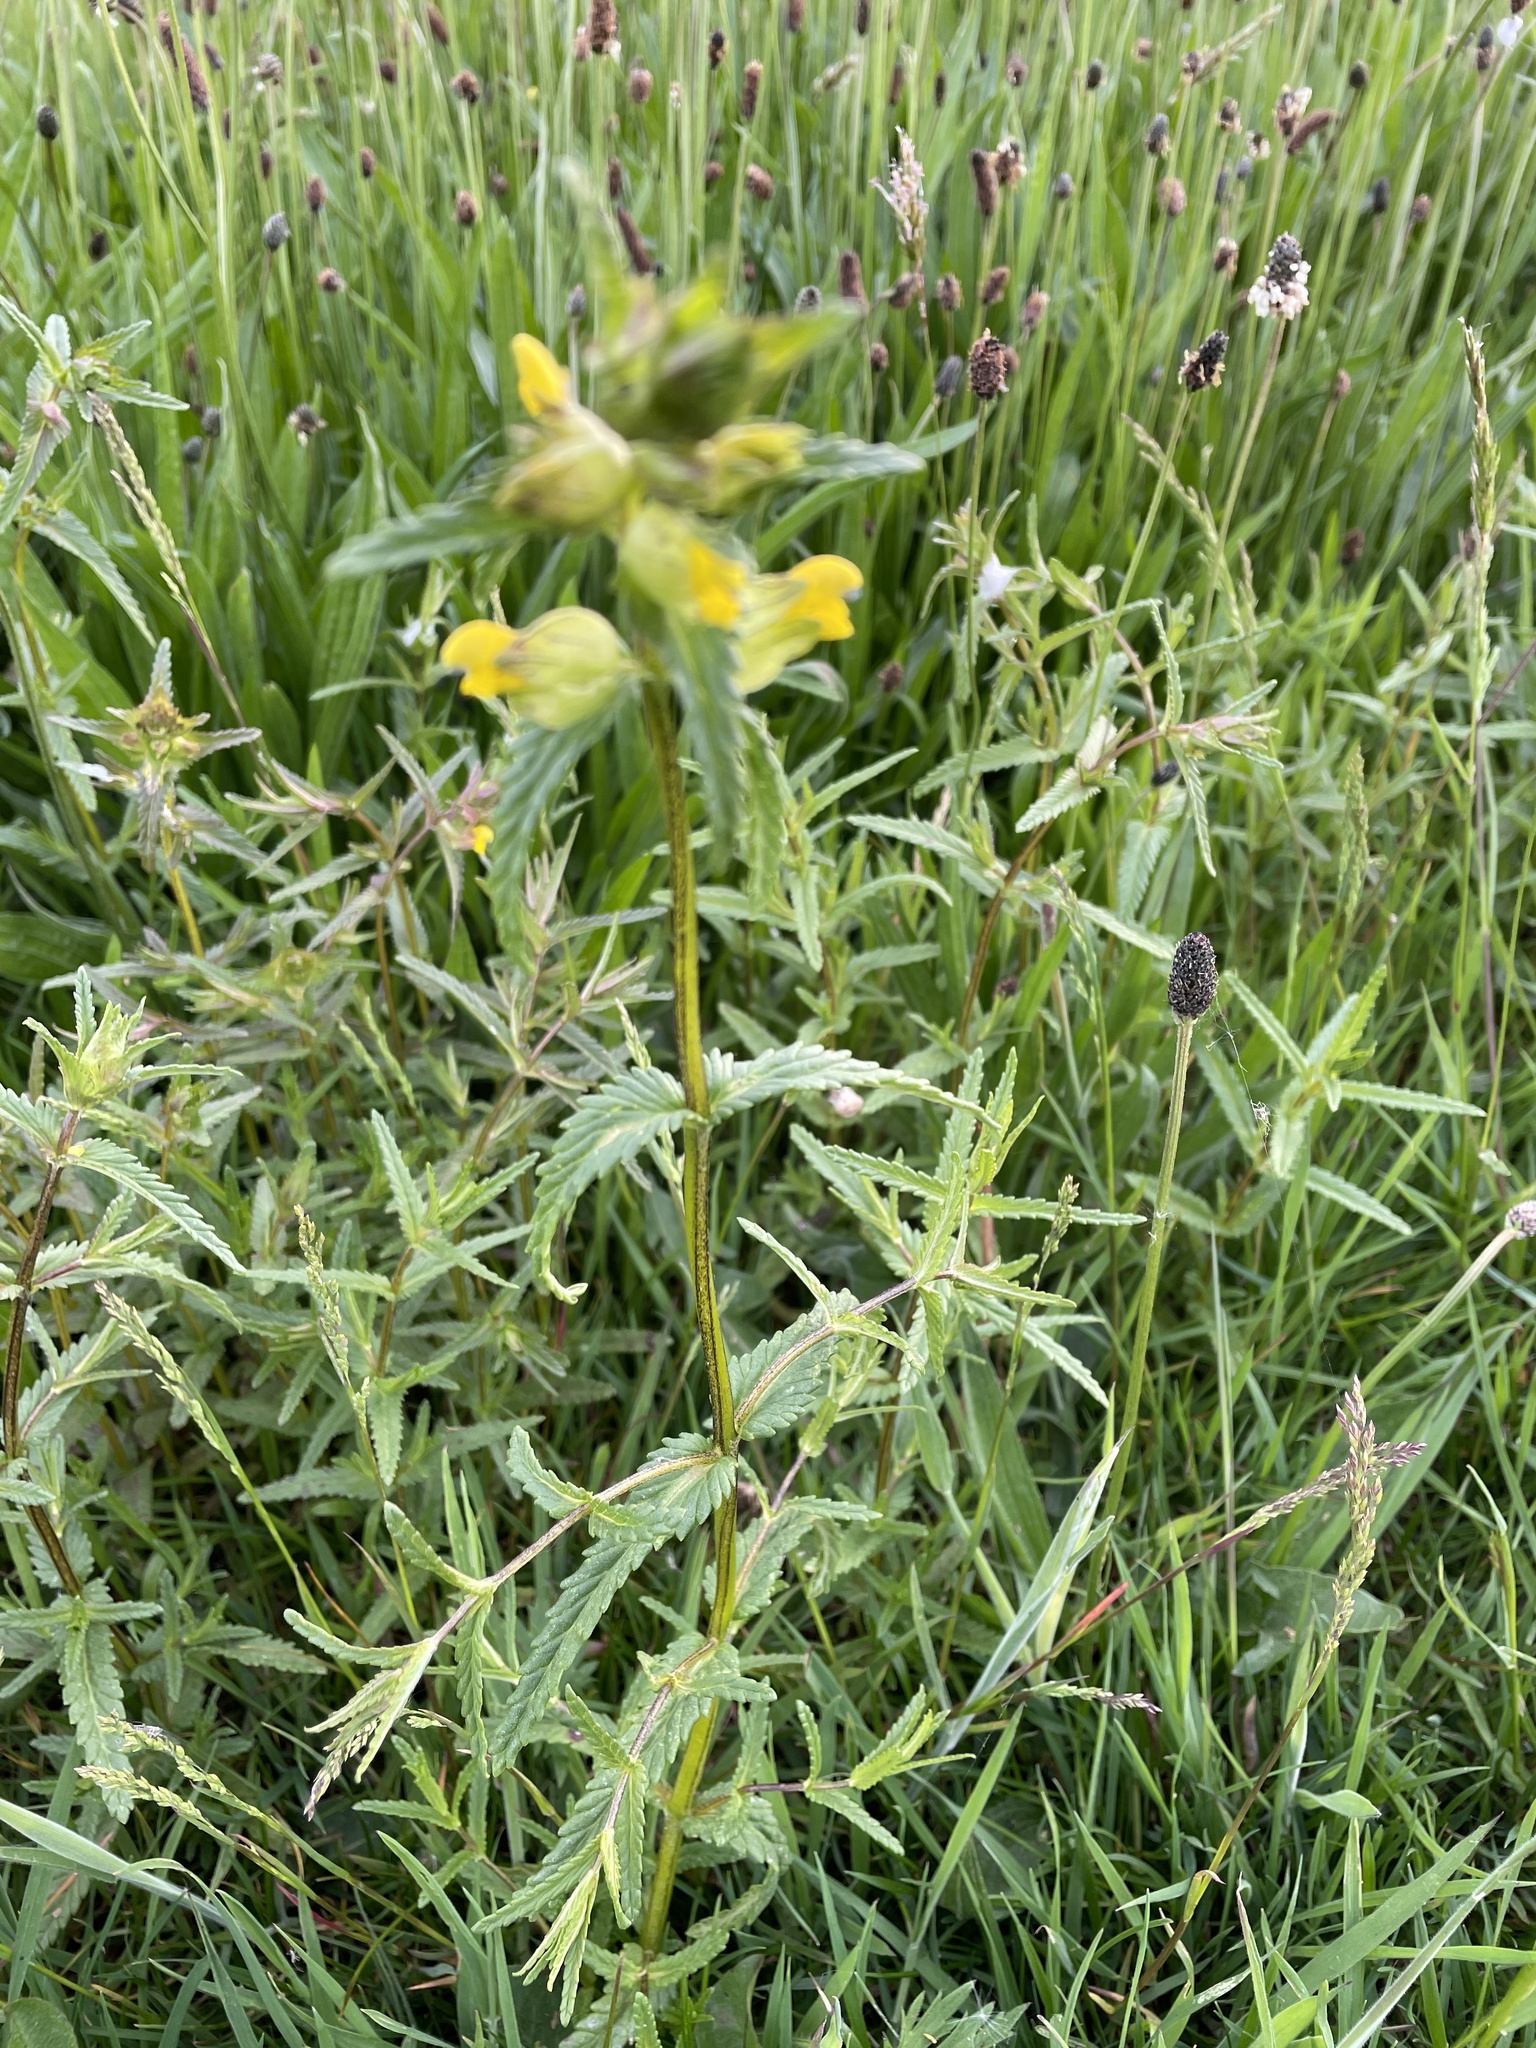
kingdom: Plantae
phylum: Tracheophyta
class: Magnoliopsida
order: Lamiales
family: Orobanchaceae
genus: Rhinanthus
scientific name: Rhinanthus minor
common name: Yellow-rattle
